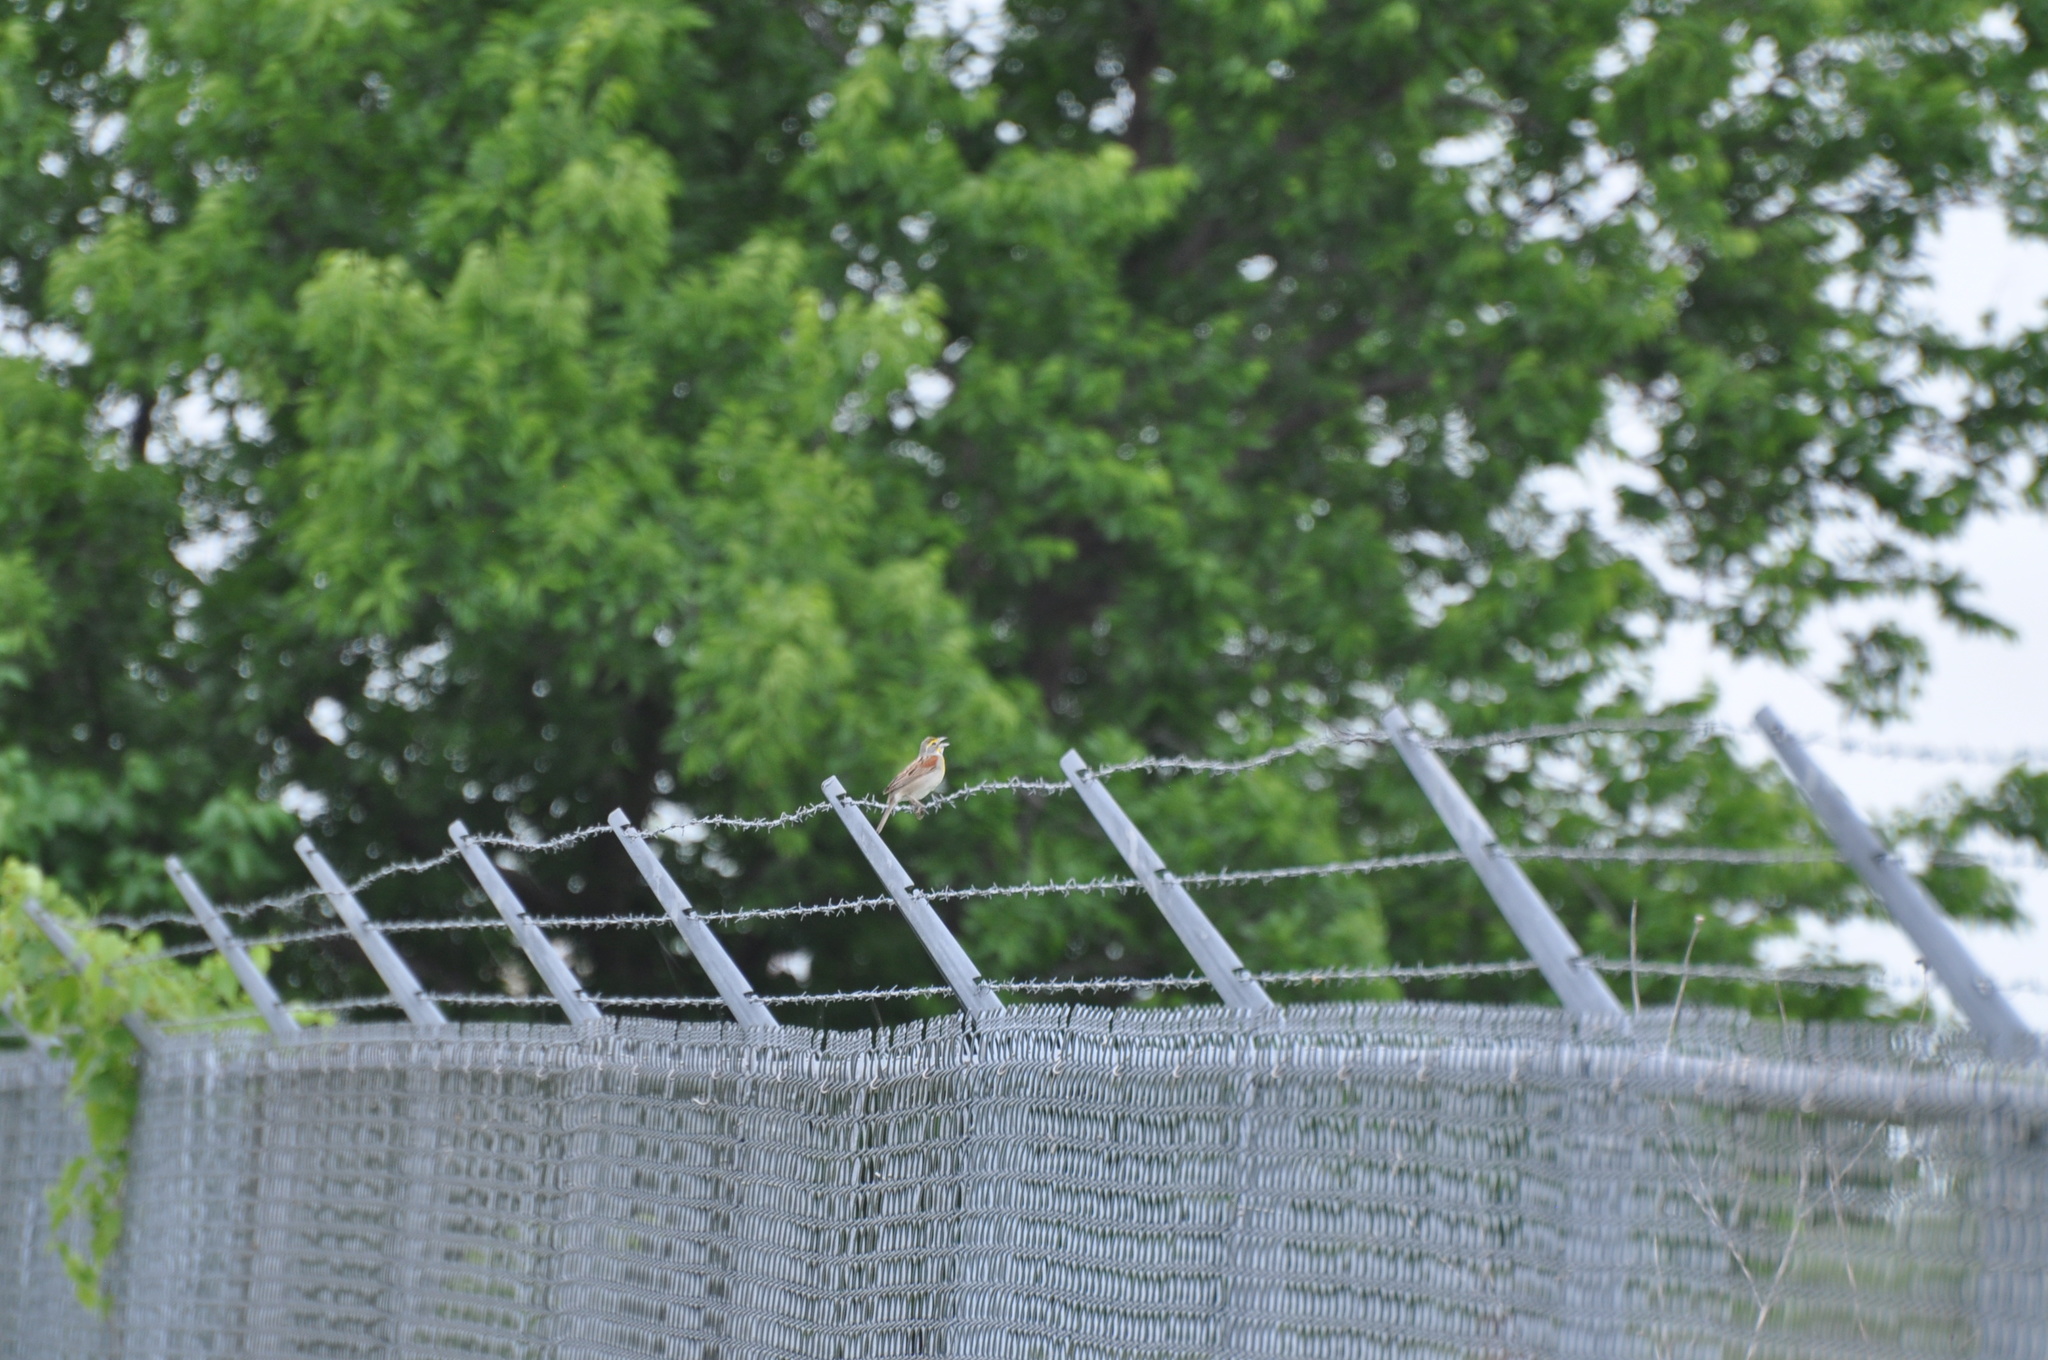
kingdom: Animalia
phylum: Chordata
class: Aves
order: Passeriformes
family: Cardinalidae
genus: Spiza
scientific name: Spiza americana
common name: Dickcissel
